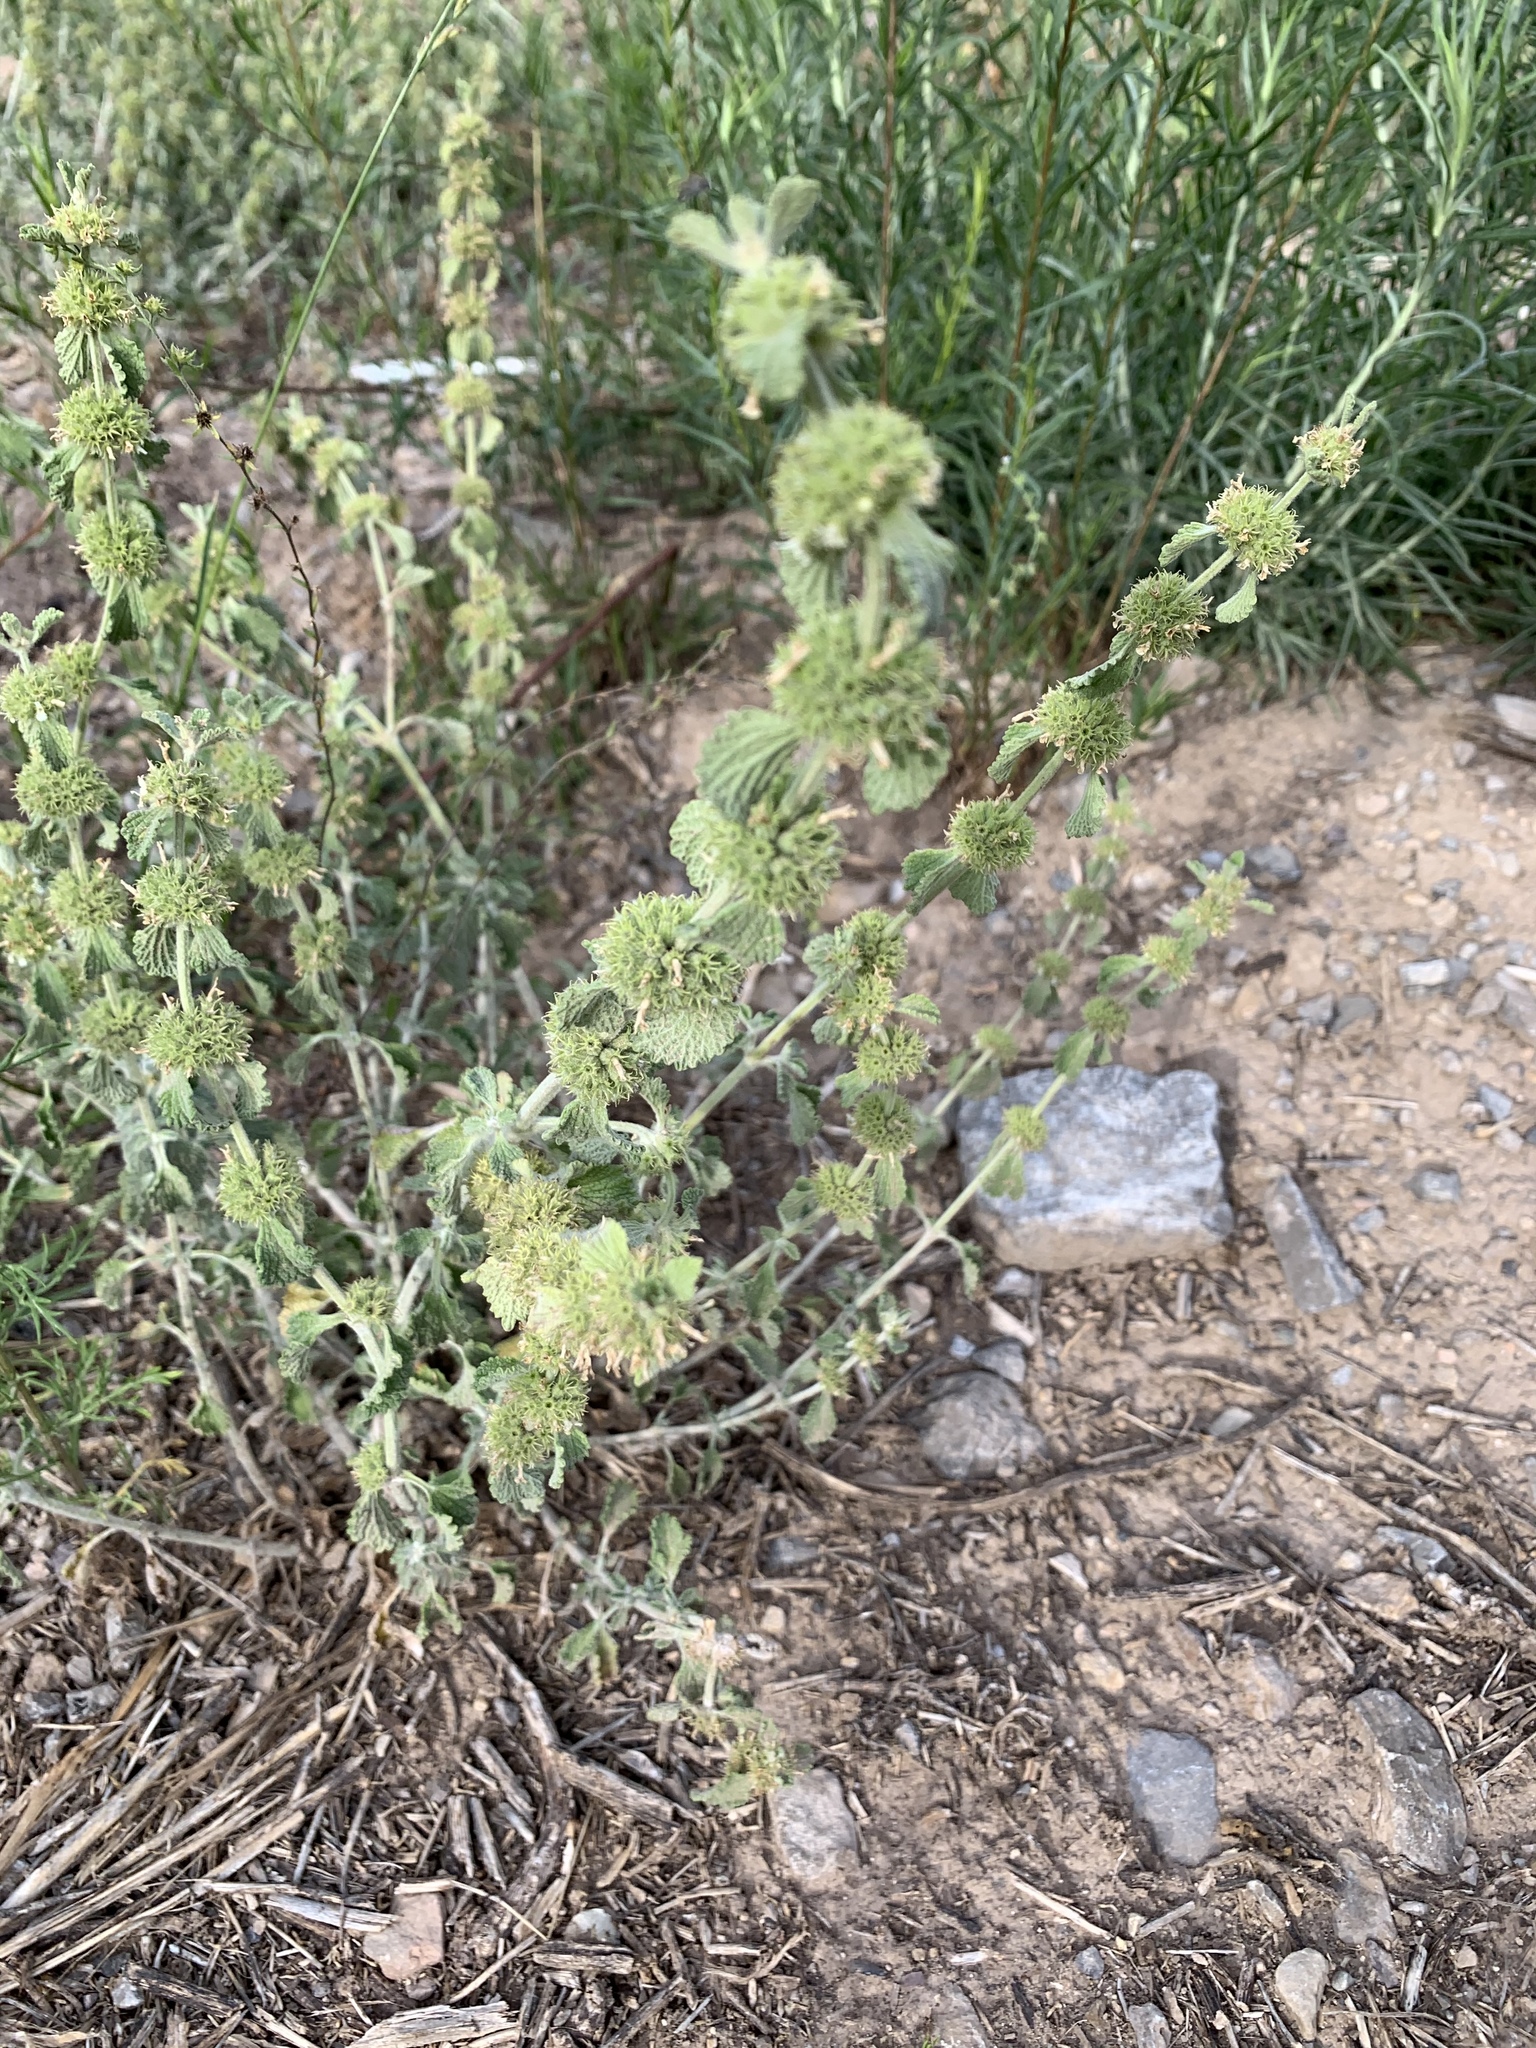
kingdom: Plantae
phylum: Tracheophyta
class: Magnoliopsida
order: Lamiales
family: Lamiaceae
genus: Marrubium
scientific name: Marrubium vulgare
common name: Horehound
